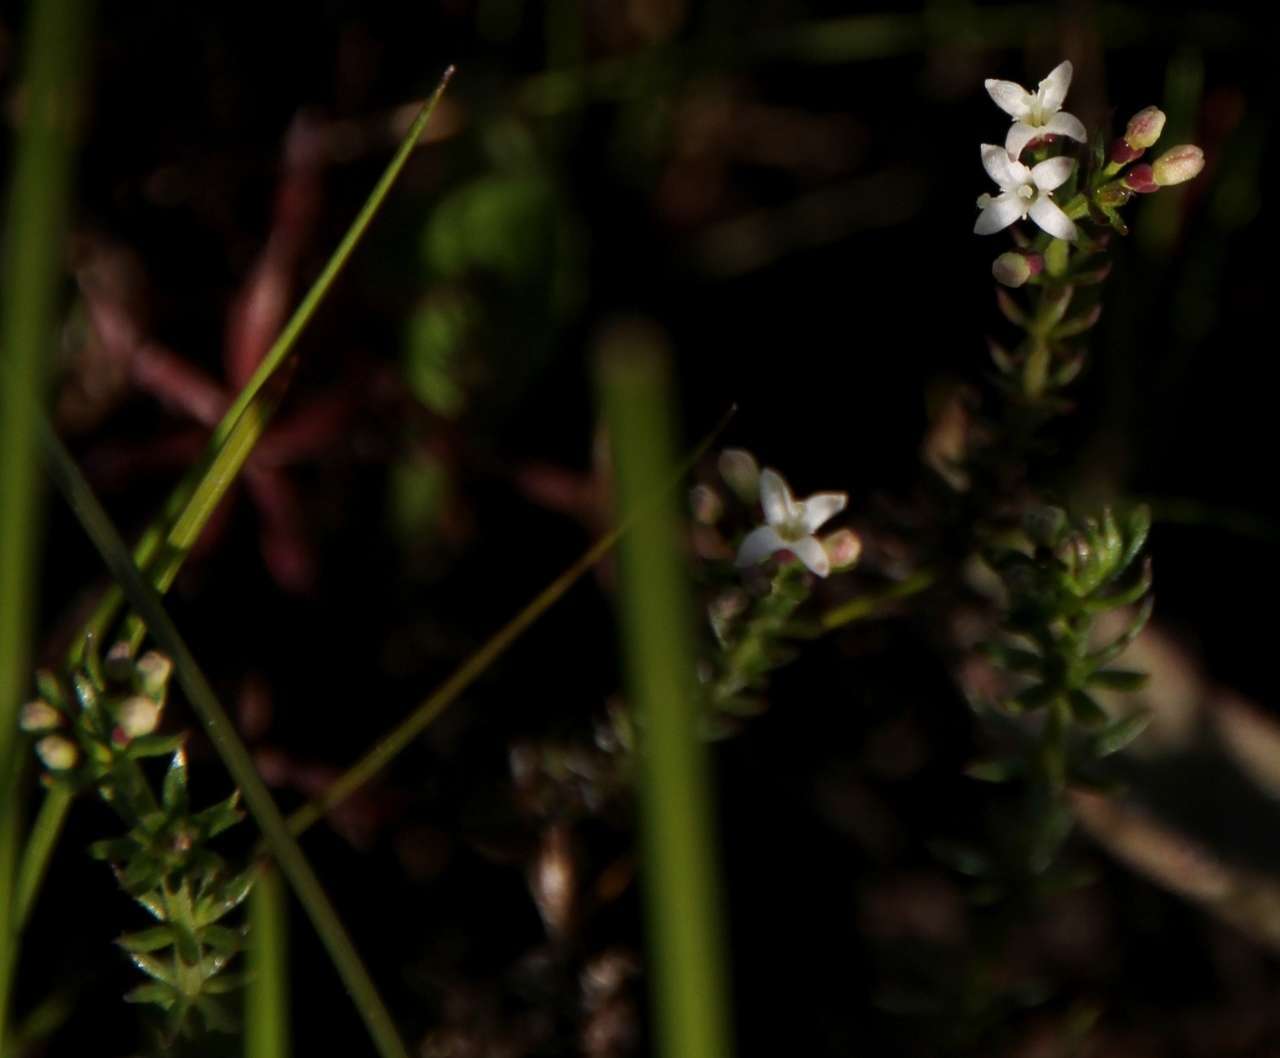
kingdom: Plantae
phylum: Tracheophyta
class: Magnoliopsida
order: Gentianales
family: Rubiaceae
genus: Asperula
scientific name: Asperula conferta
